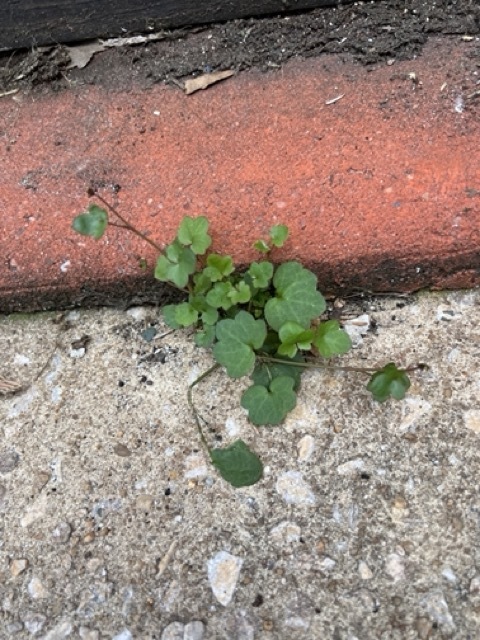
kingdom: Plantae
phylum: Tracheophyta
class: Magnoliopsida
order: Lamiales
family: Plantaginaceae
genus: Cymbalaria
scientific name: Cymbalaria muralis
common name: Ivy-leaved toadflax
